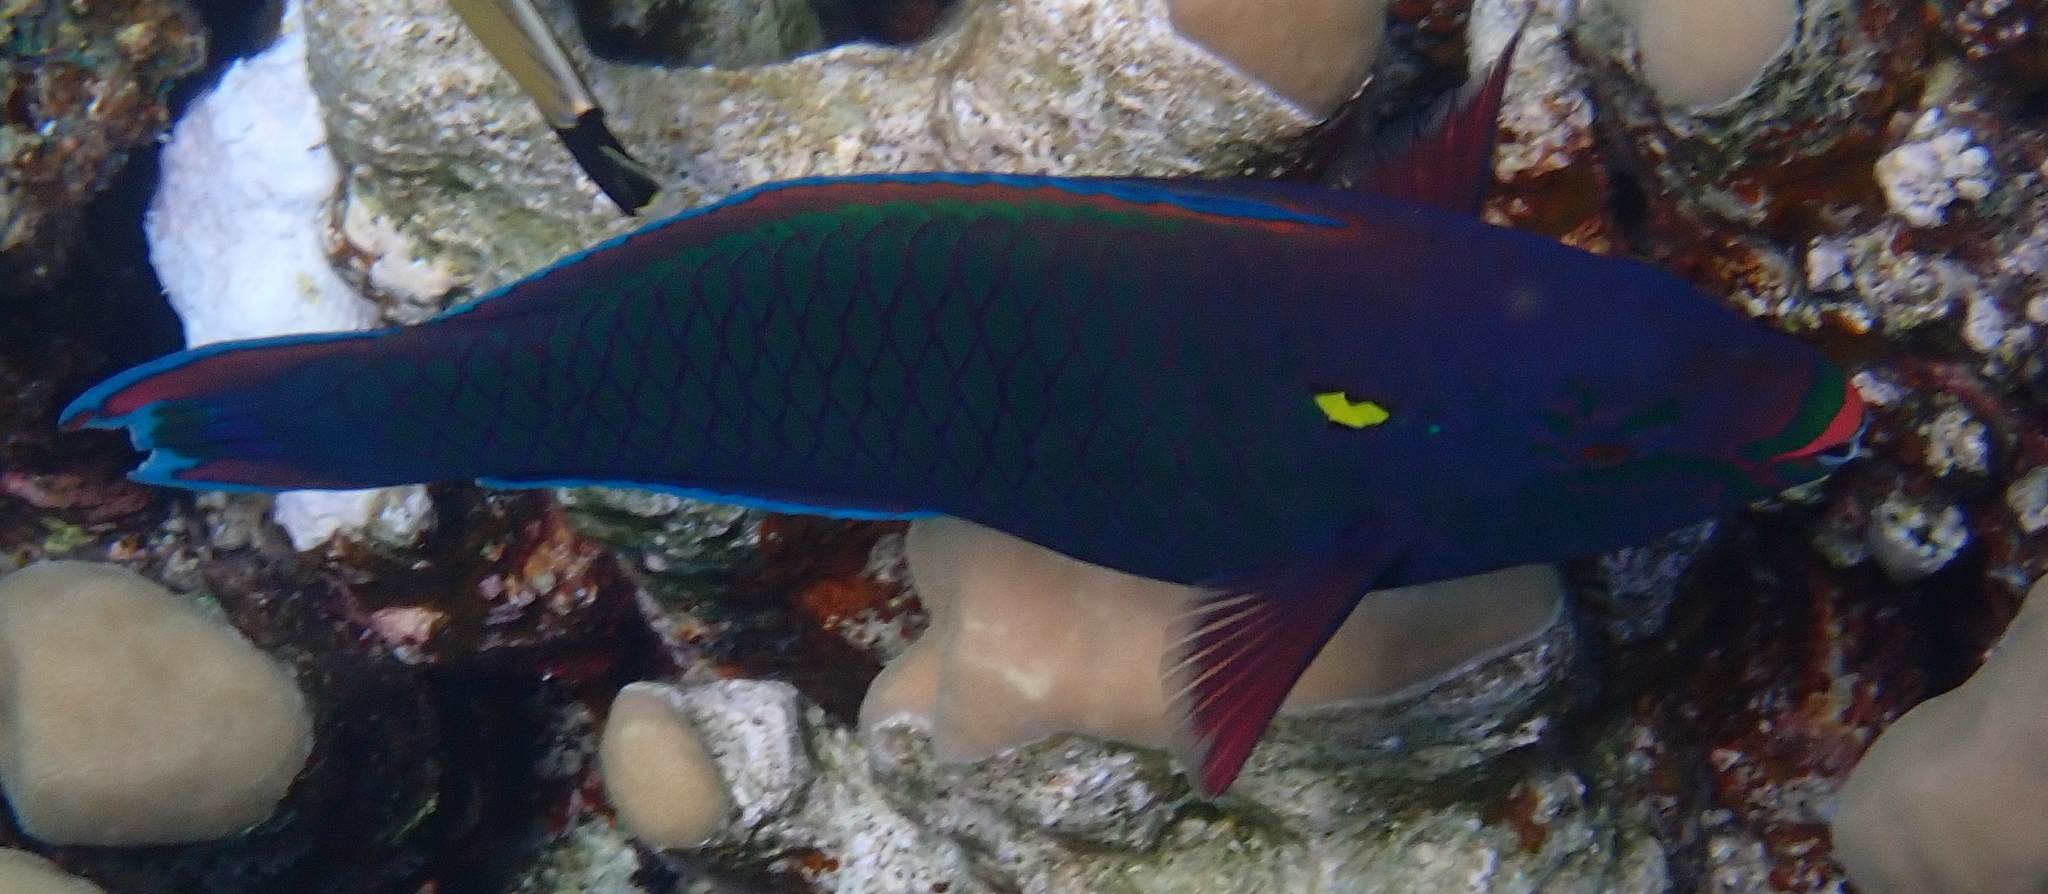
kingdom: Animalia
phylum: Chordata
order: Perciformes
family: Scaridae
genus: Scarus
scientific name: Scarus niger
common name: Dusky parrotfish
